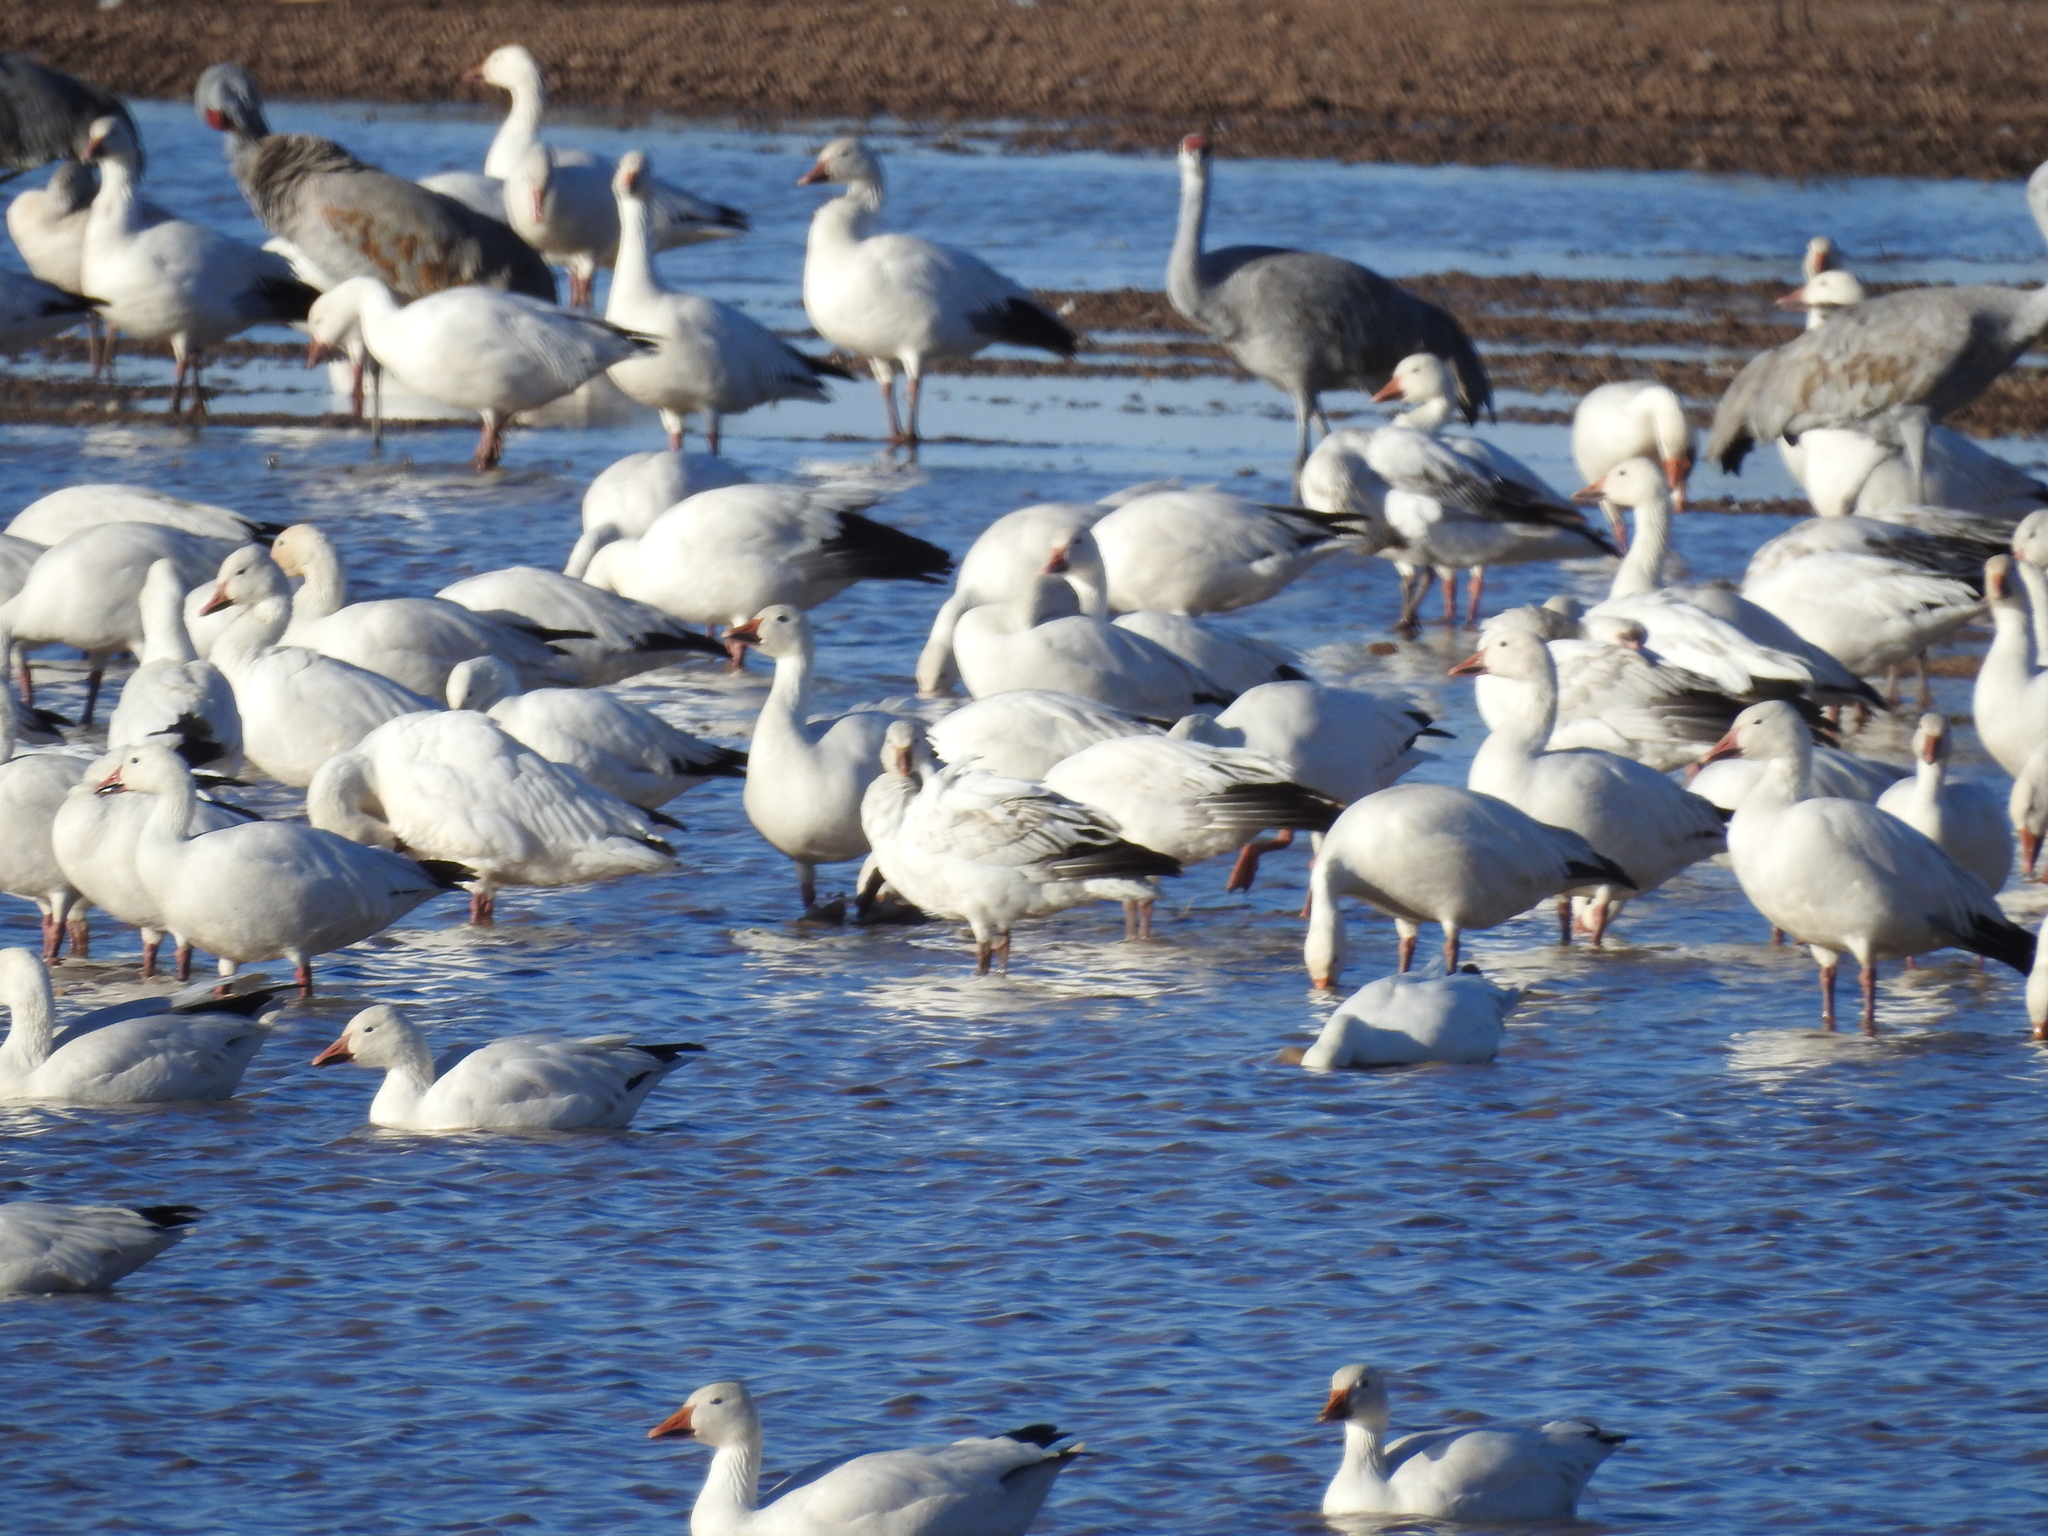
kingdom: Animalia
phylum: Chordata
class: Aves
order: Anseriformes
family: Anatidae
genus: Anser
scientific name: Anser caerulescens
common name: Snow goose
